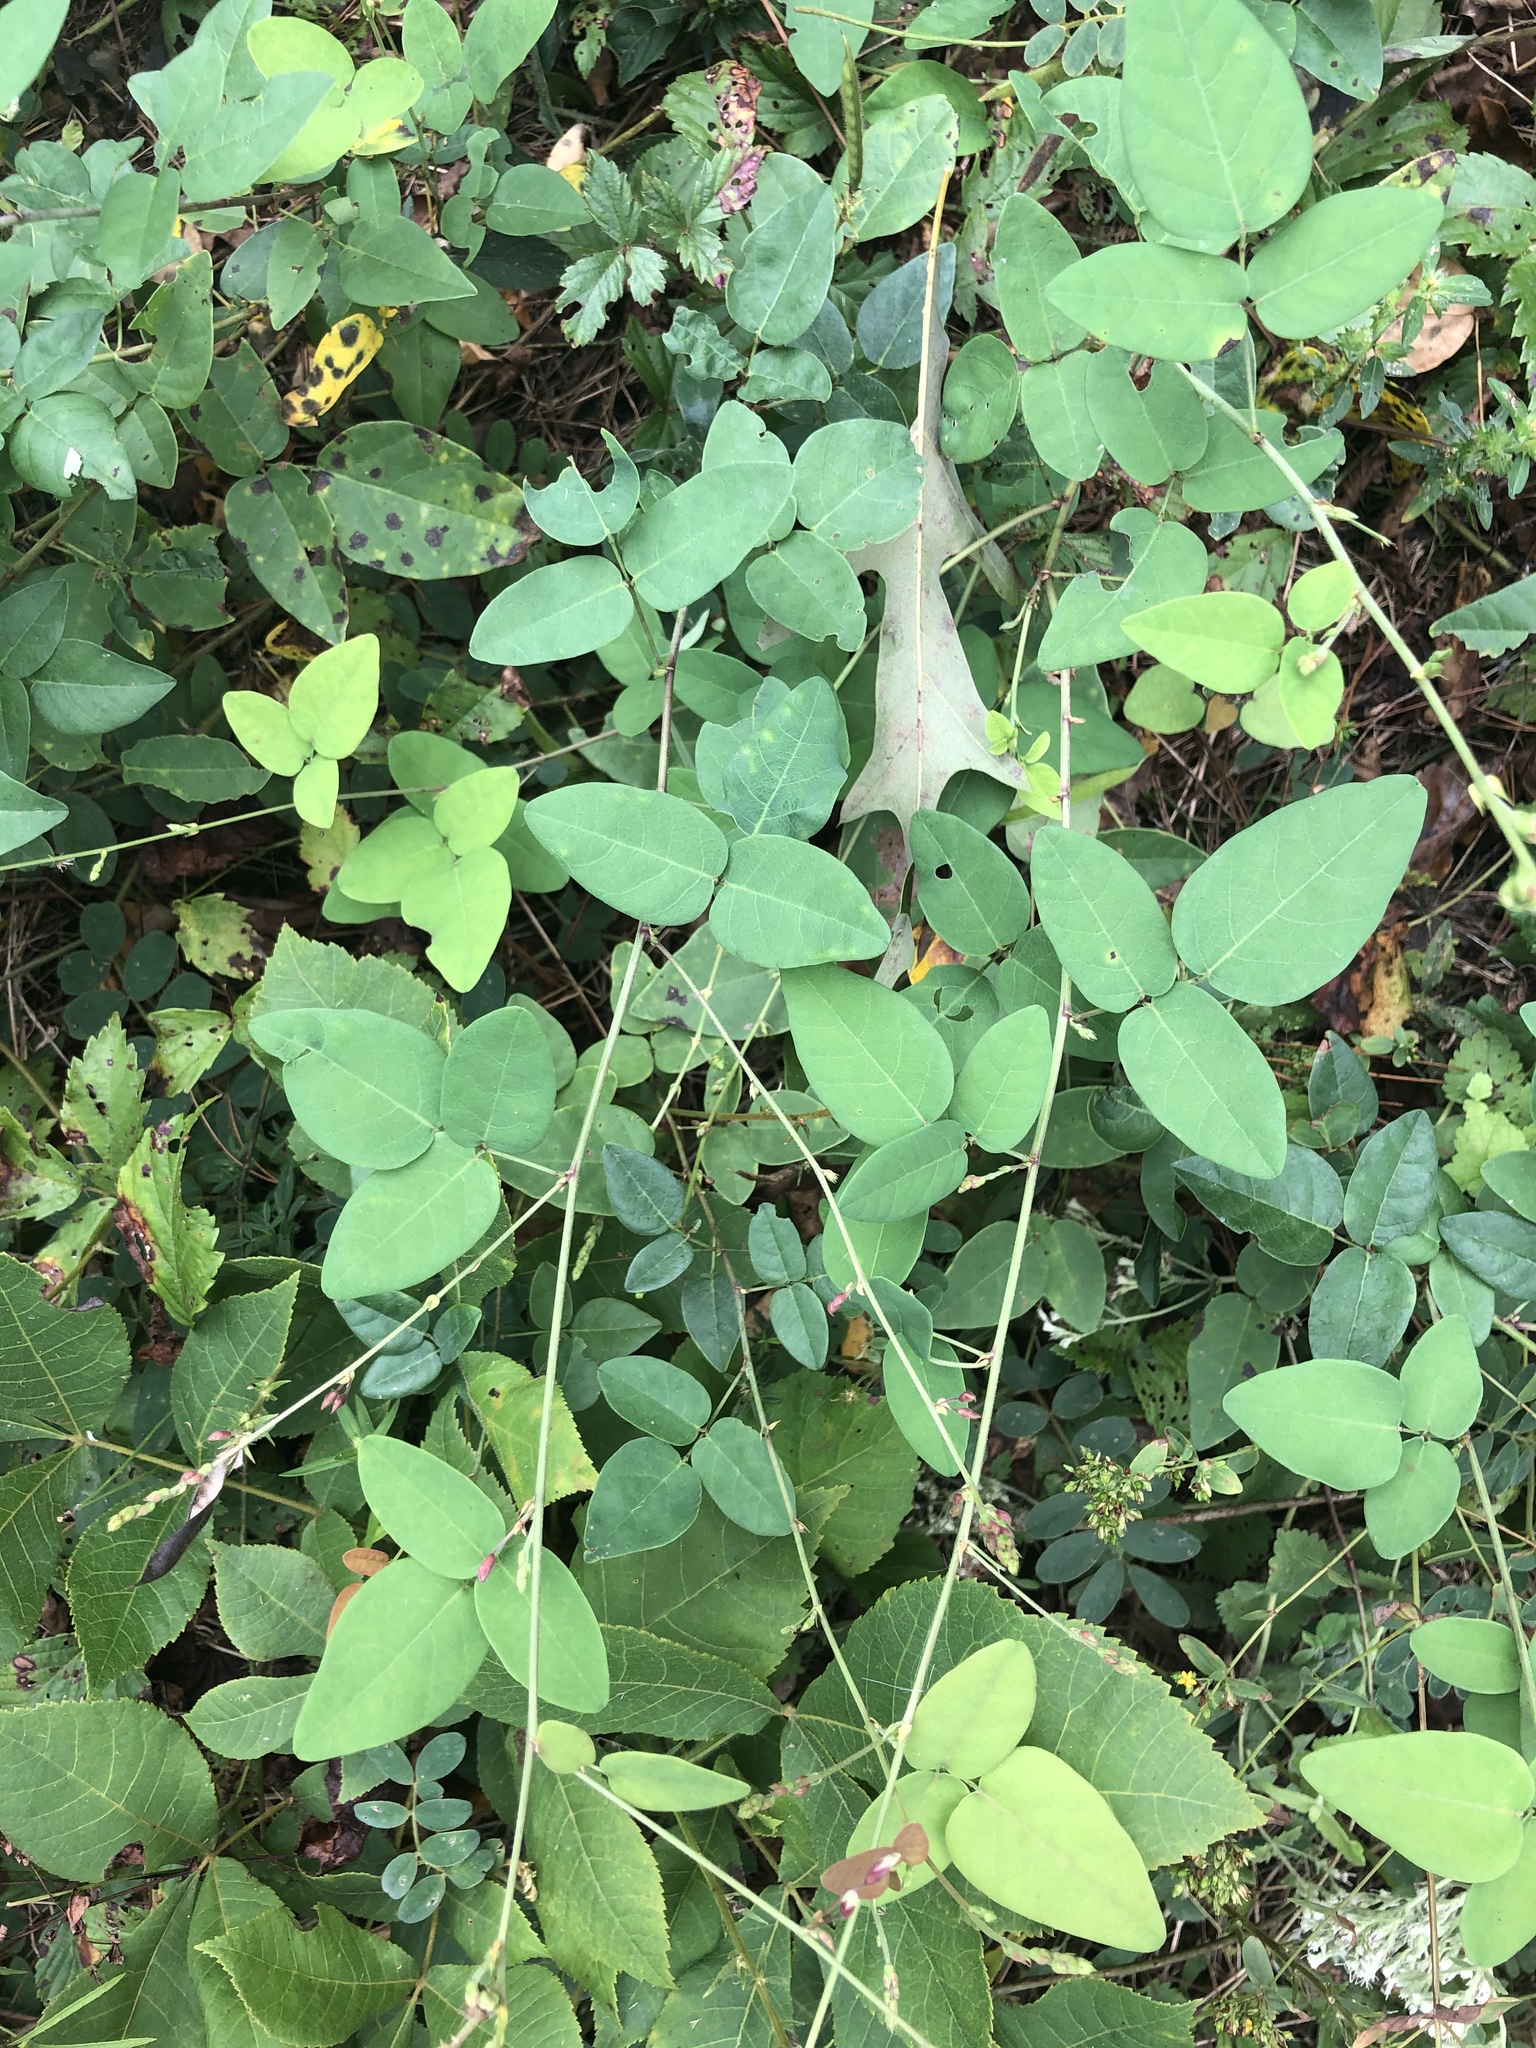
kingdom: Plantae
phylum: Tracheophyta
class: Magnoliopsida
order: Fabales
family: Fabaceae
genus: Desmodium
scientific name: Desmodium laevigatum
